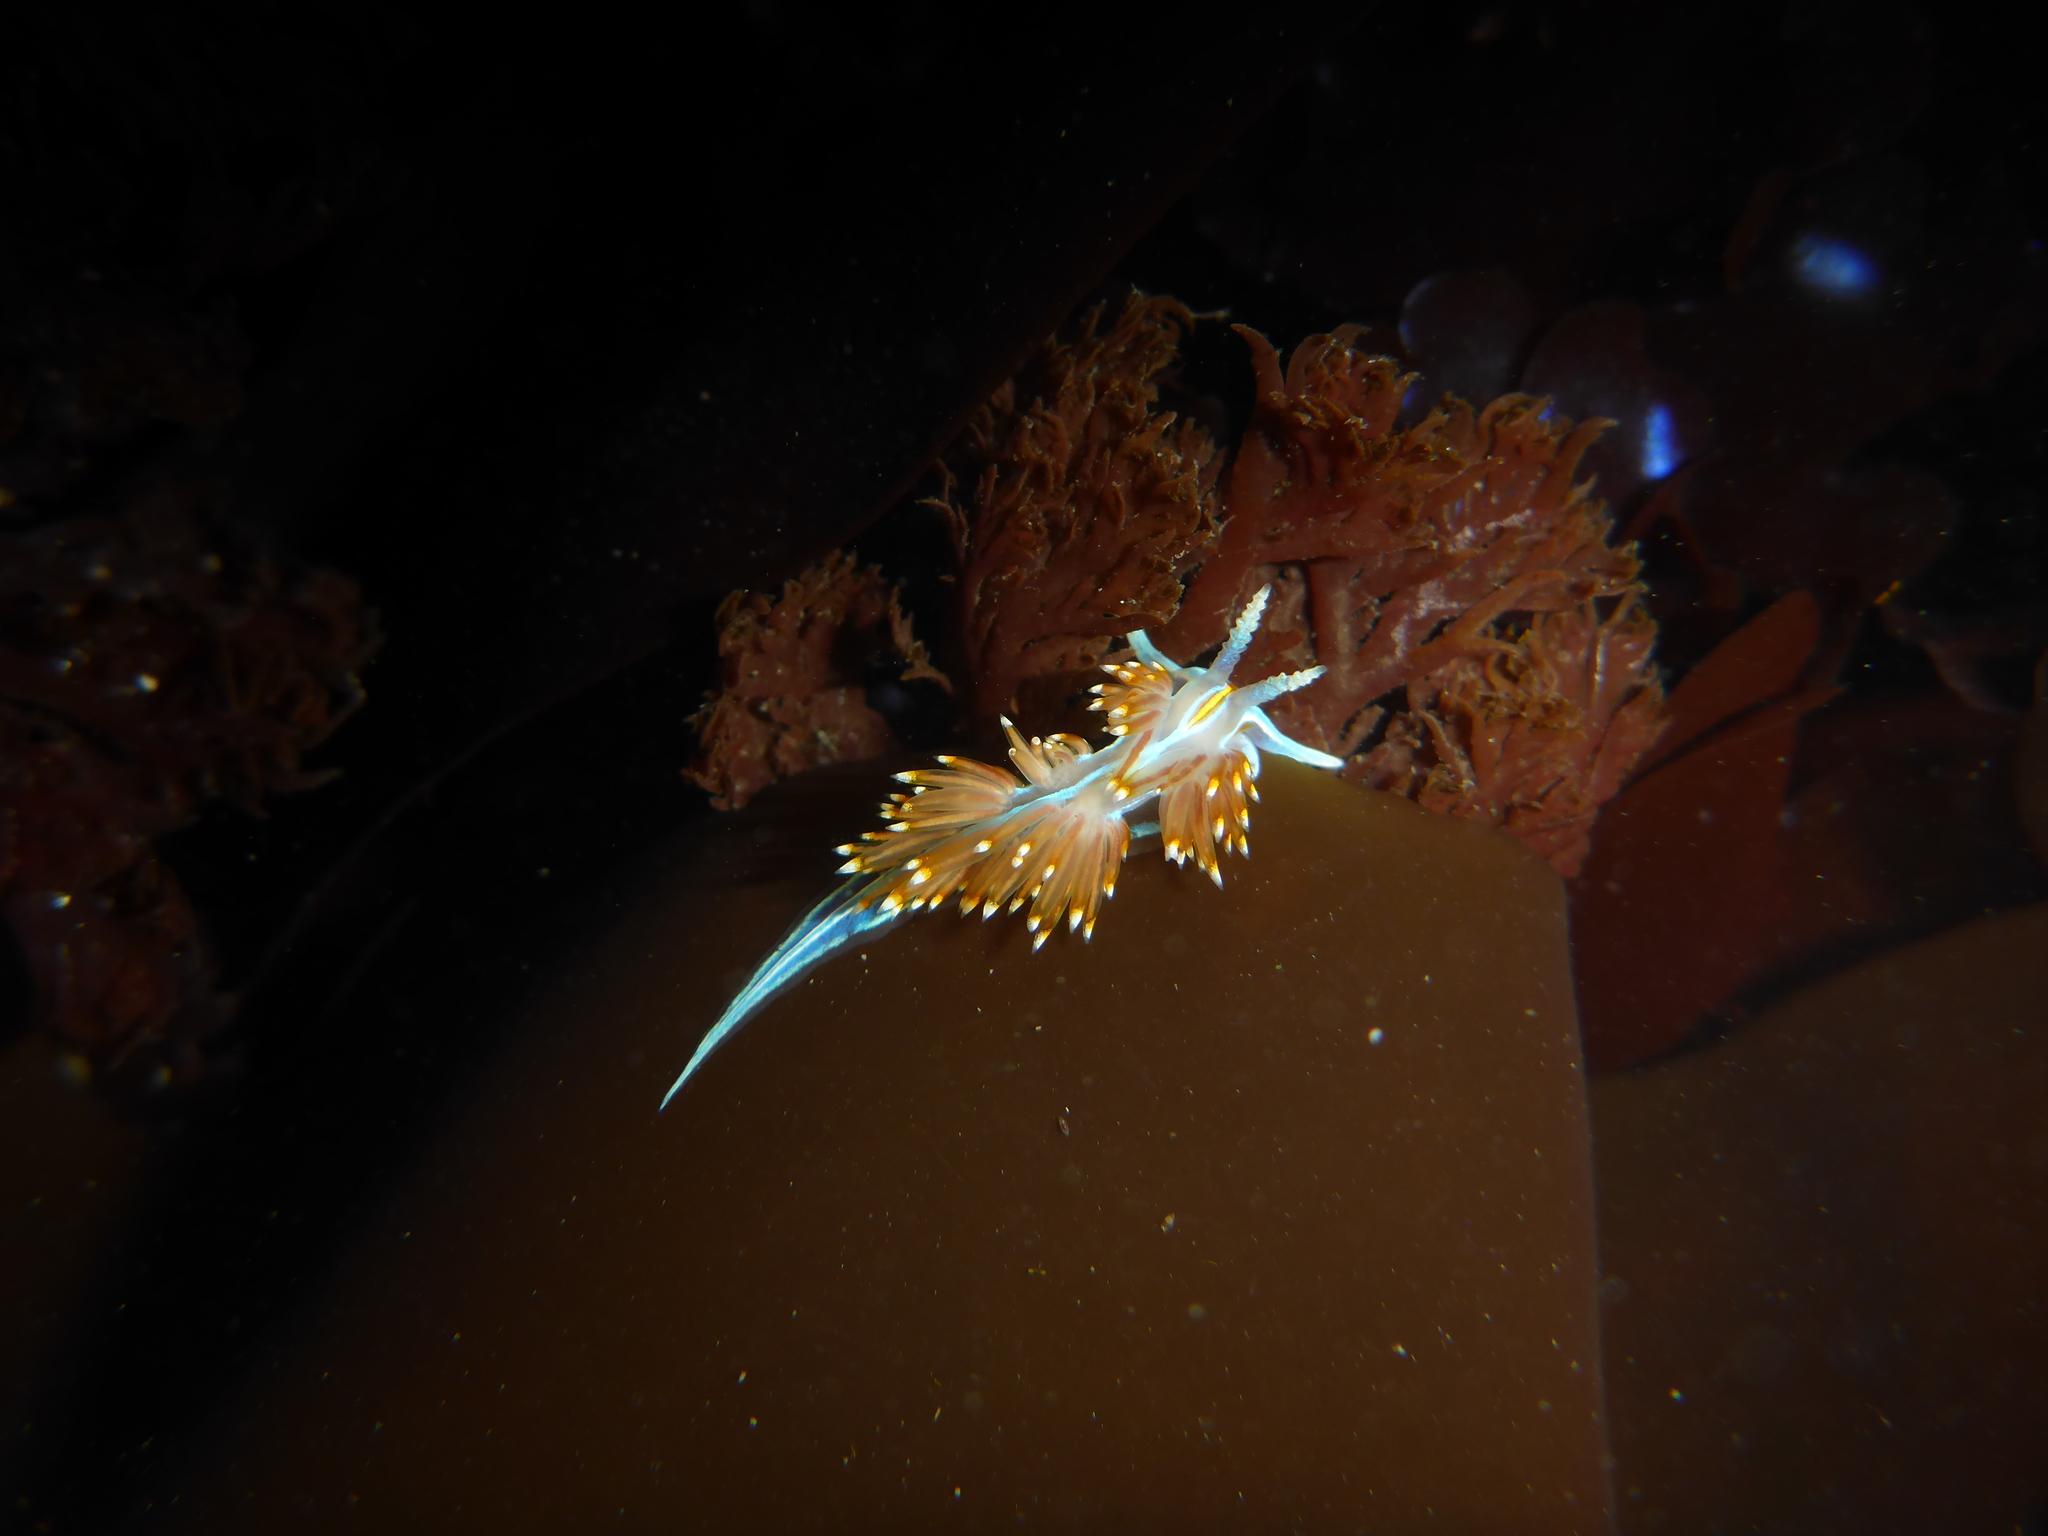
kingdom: Animalia
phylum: Mollusca
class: Gastropoda
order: Nudibranchia
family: Myrrhinidae
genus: Hermissenda
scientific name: Hermissenda opalescens
